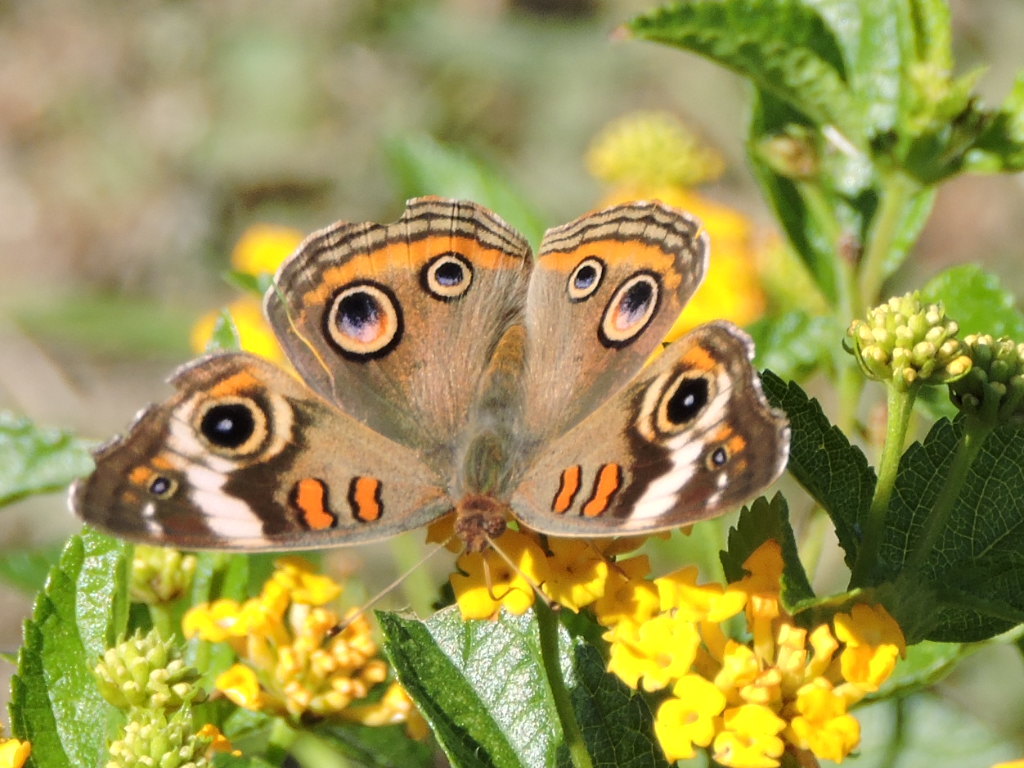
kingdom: Animalia
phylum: Arthropoda
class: Insecta
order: Lepidoptera
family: Nymphalidae
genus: Junonia
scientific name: Junonia coenia
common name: Common buckeye
